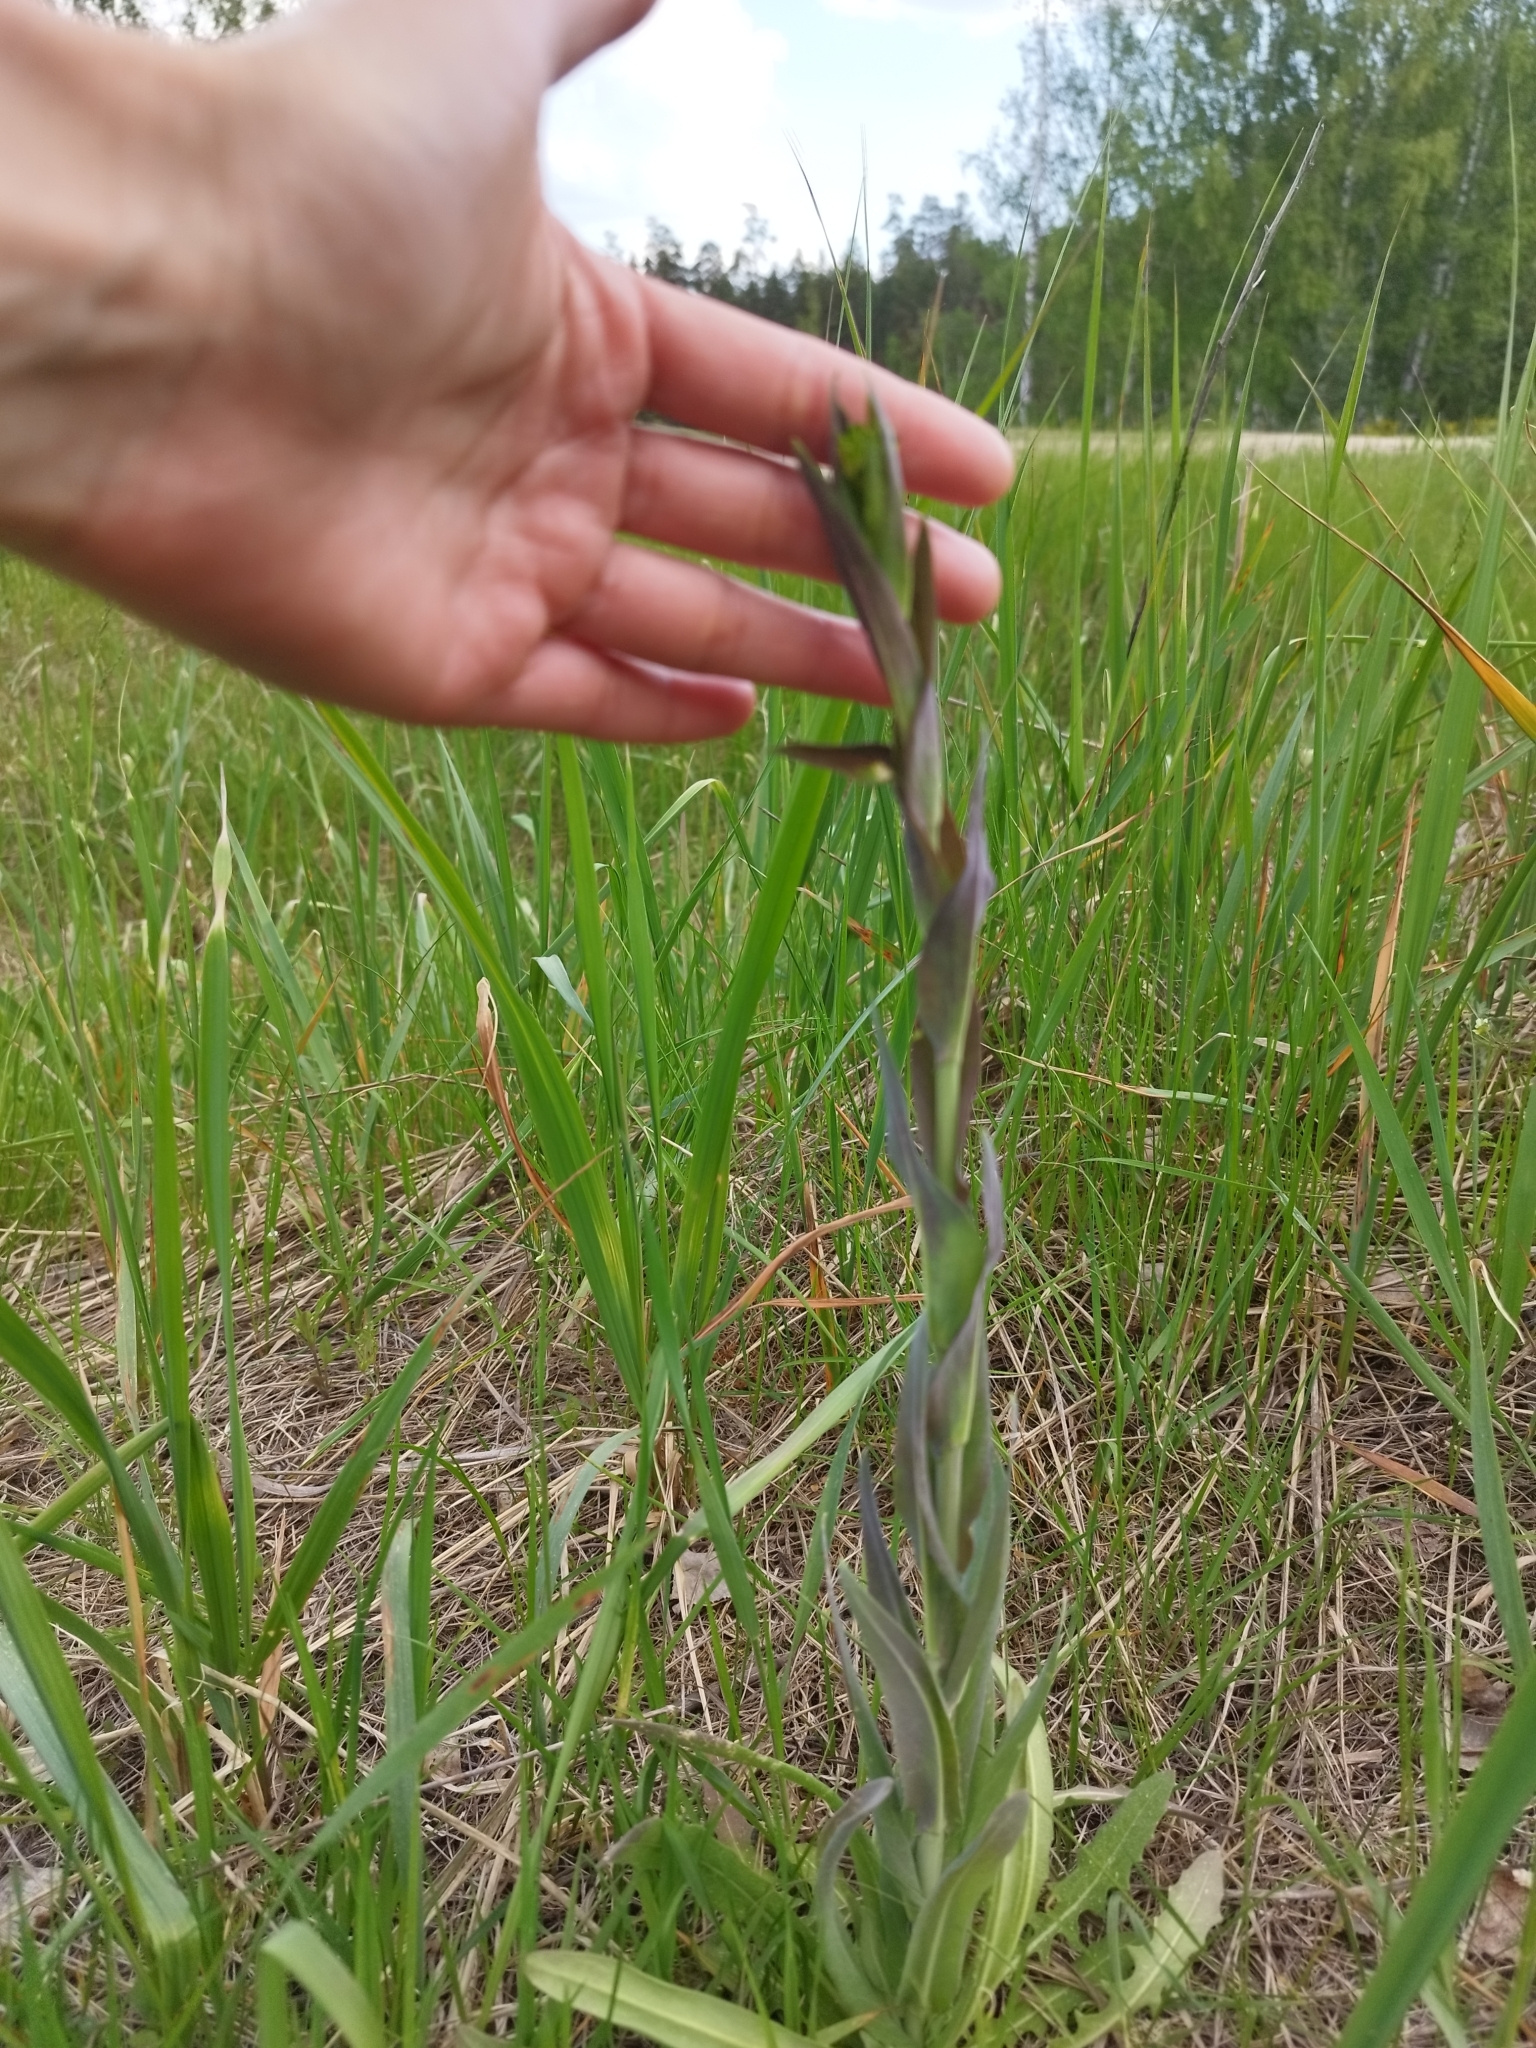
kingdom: Plantae
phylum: Tracheophyta
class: Magnoliopsida
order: Brassicales
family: Brassicaceae
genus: Turritis
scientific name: Turritis glabra
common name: Tower rockcress
